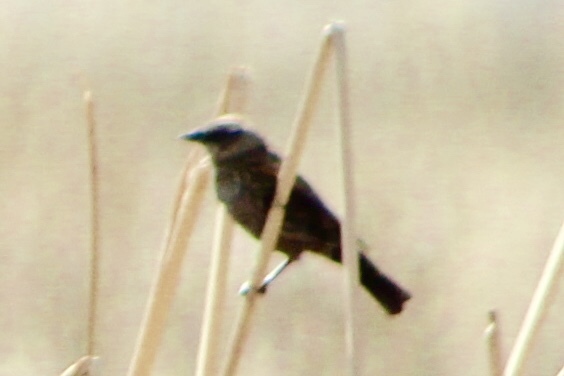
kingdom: Animalia
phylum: Chordata
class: Aves
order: Passeriformes
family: Icteridae
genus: Agelaius
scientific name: Agelaius phoeniceus
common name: Red-winged blackbird
